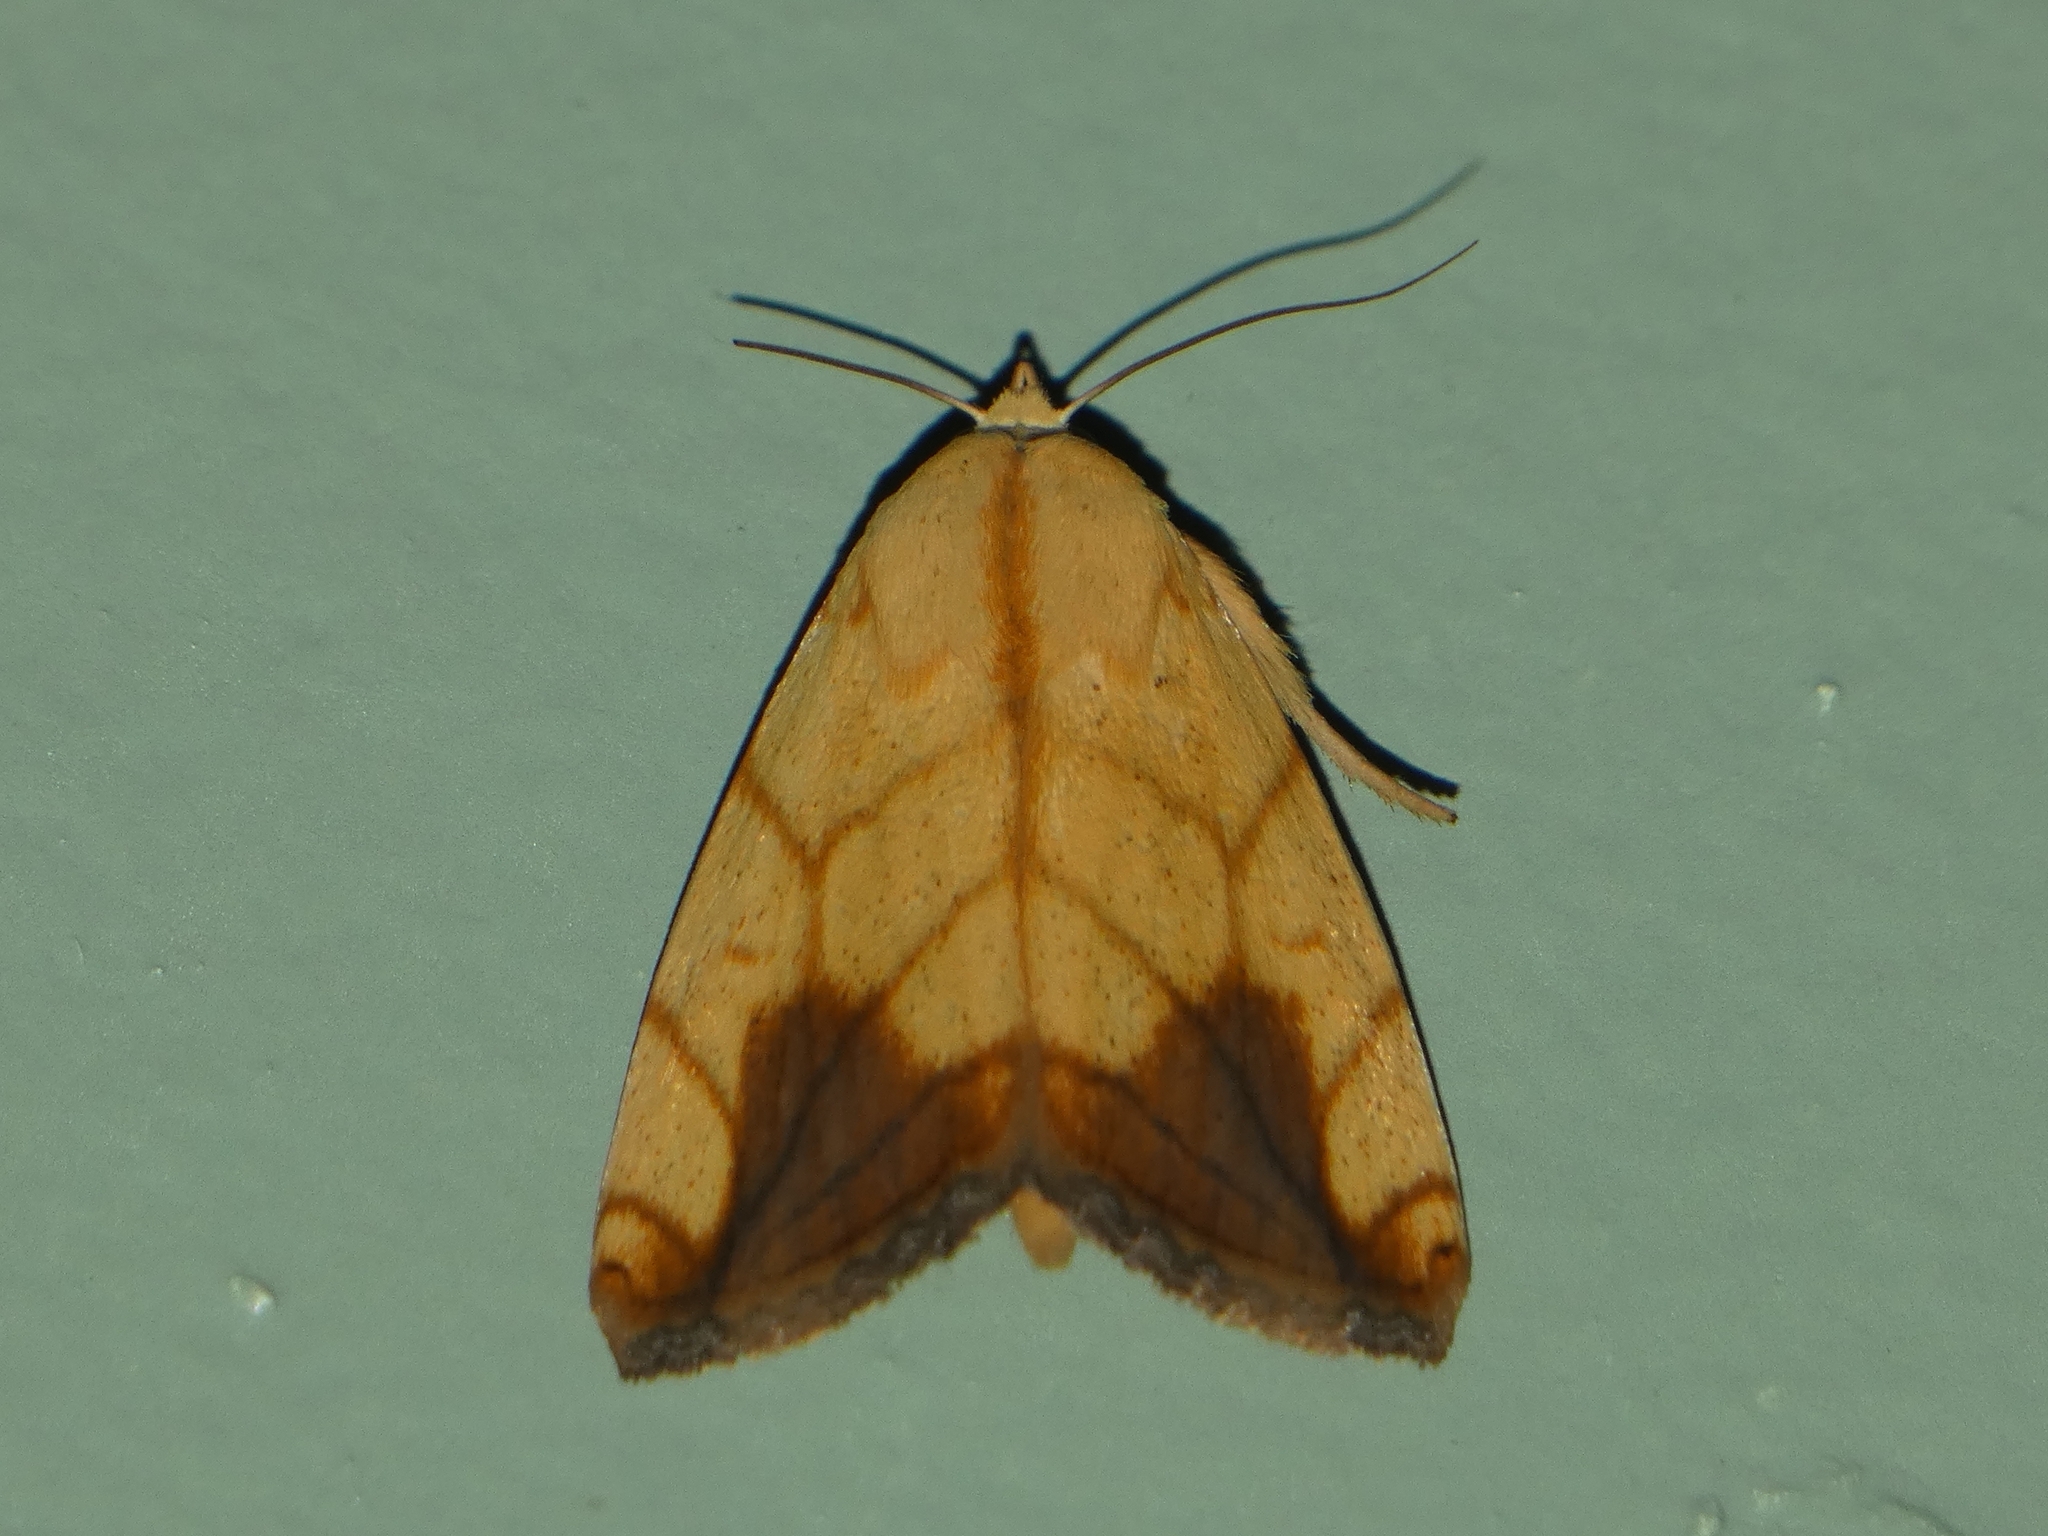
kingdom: Animalia
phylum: Arthropoda
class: Insecta
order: Lepidoptera
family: Nolidae
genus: Xanthodes
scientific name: Xanthodes transversa
